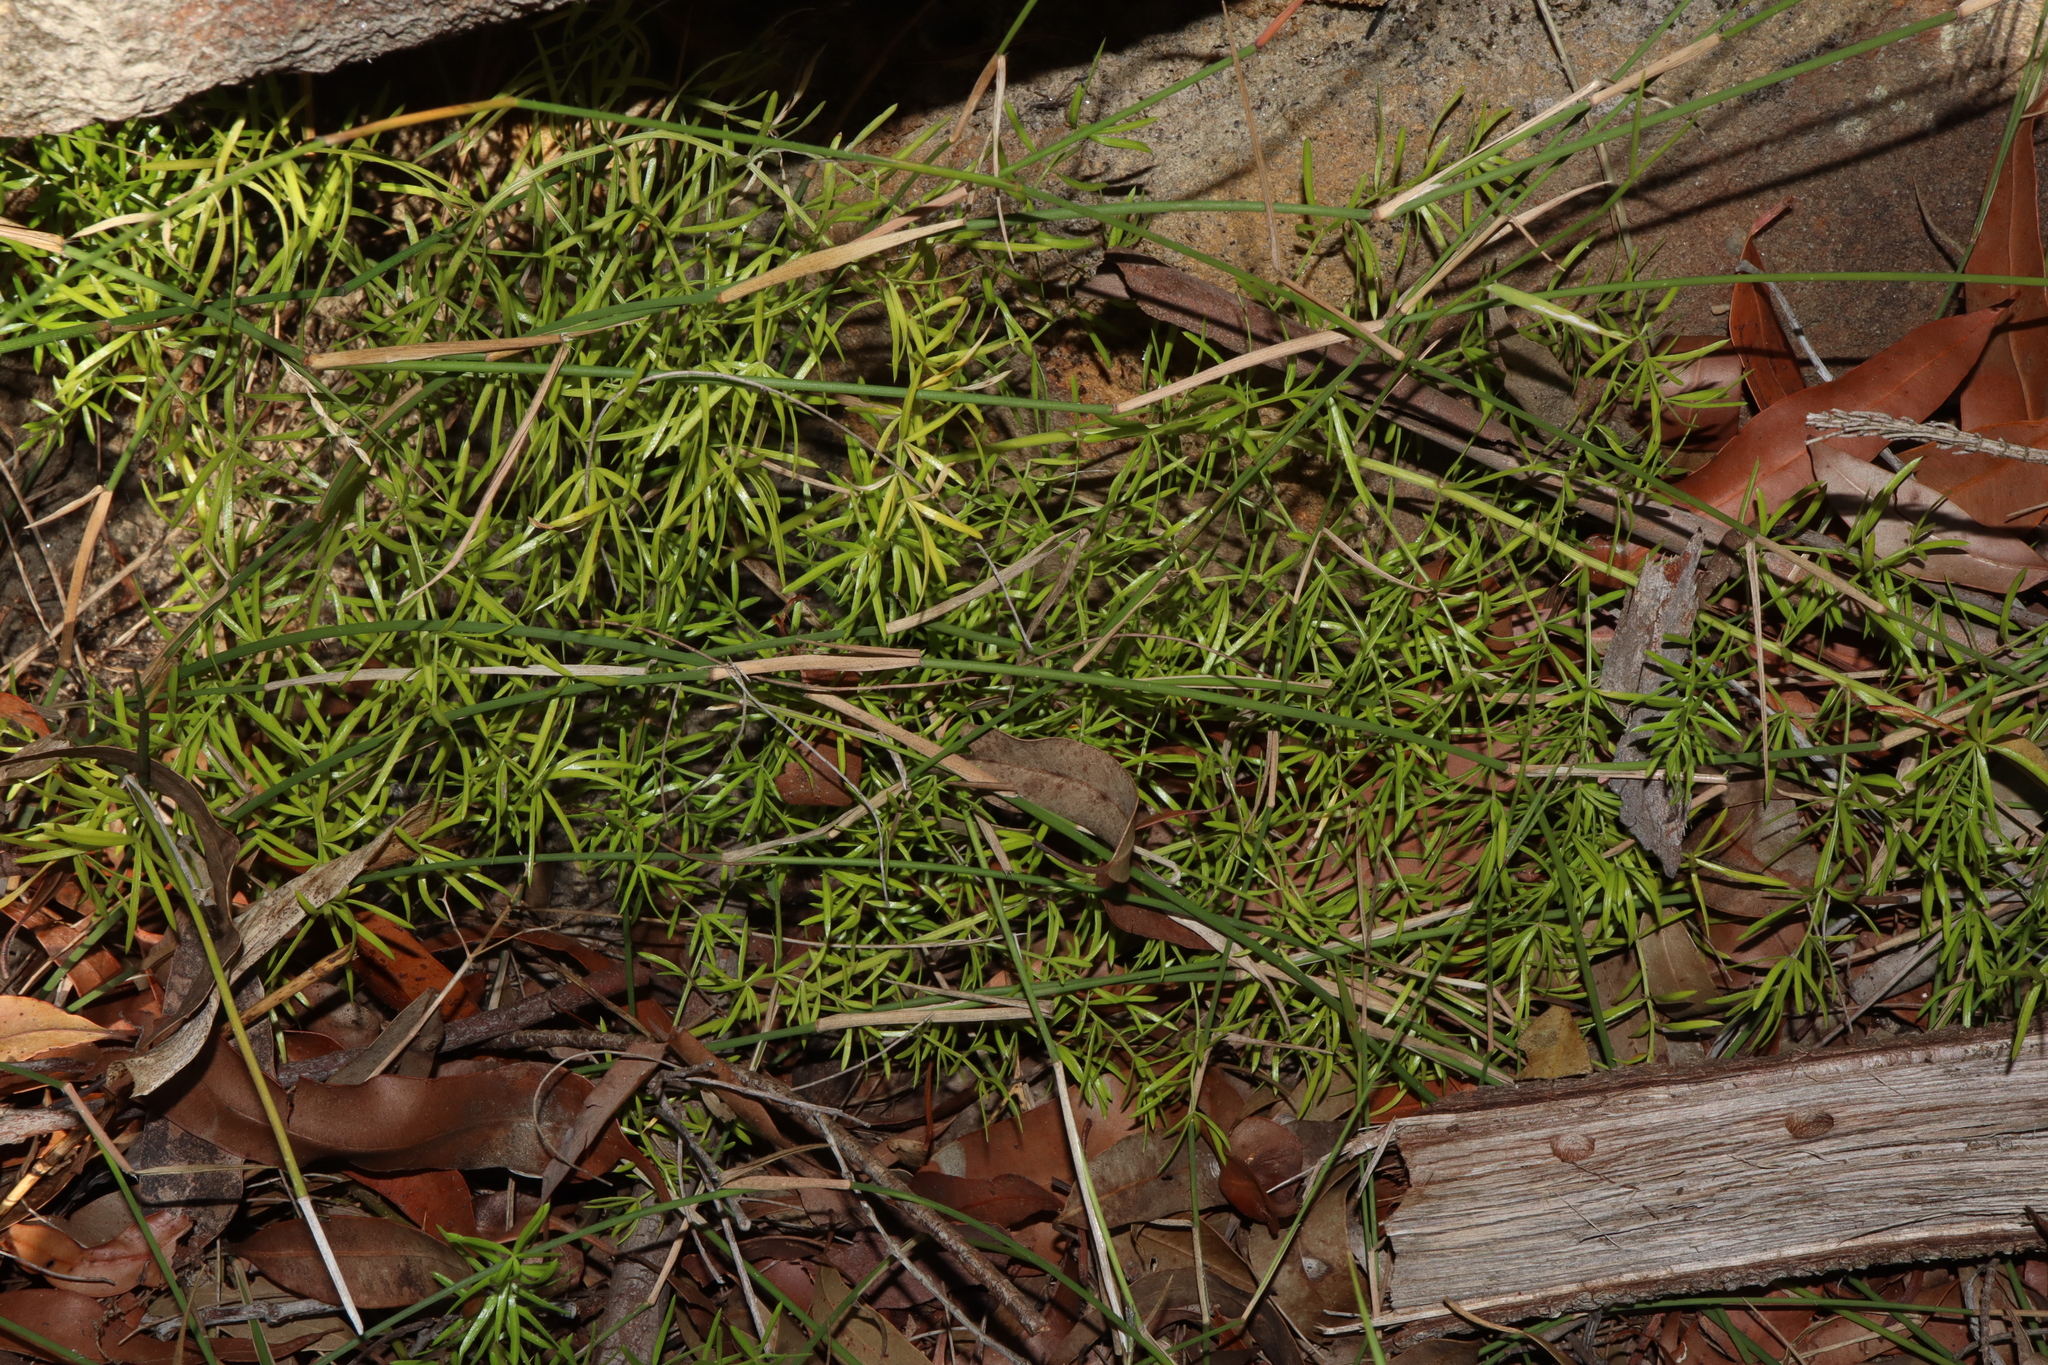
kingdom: Plantae
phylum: Tracheophyta
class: Liliopsida
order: Asparagales
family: Asparagaceae
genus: Asparagus
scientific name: Asparagus aethiopicus
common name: Sprenger's asparagus fern
